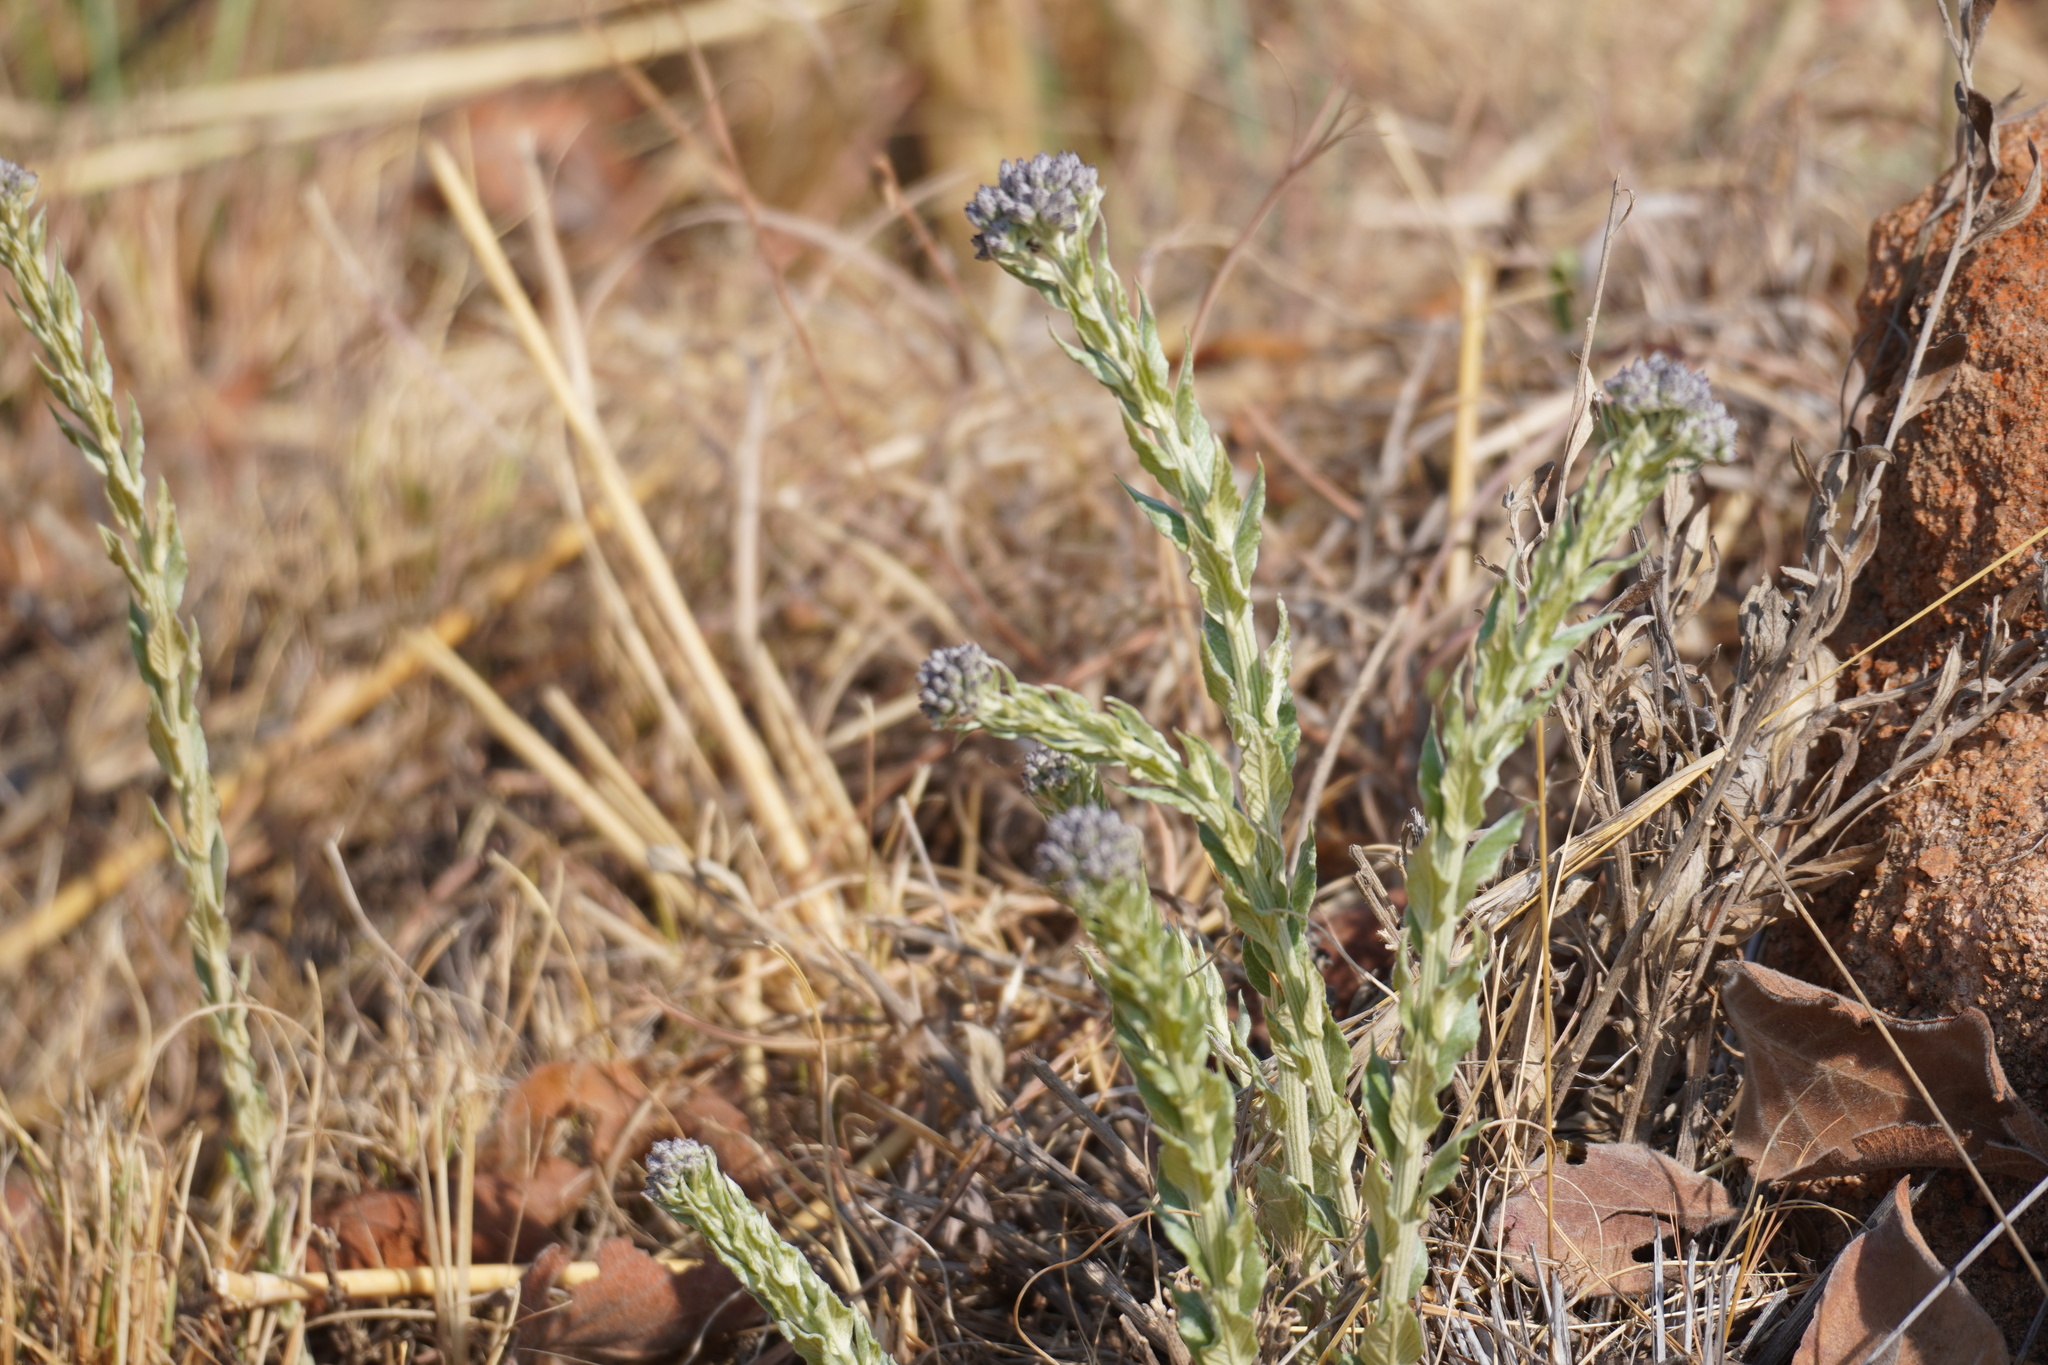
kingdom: Plantae
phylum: Tracheophyta
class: Magnoliopsida
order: Asterales
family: Asteraceae
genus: Hilliardiella
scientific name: Hilliardiella oligocephala
